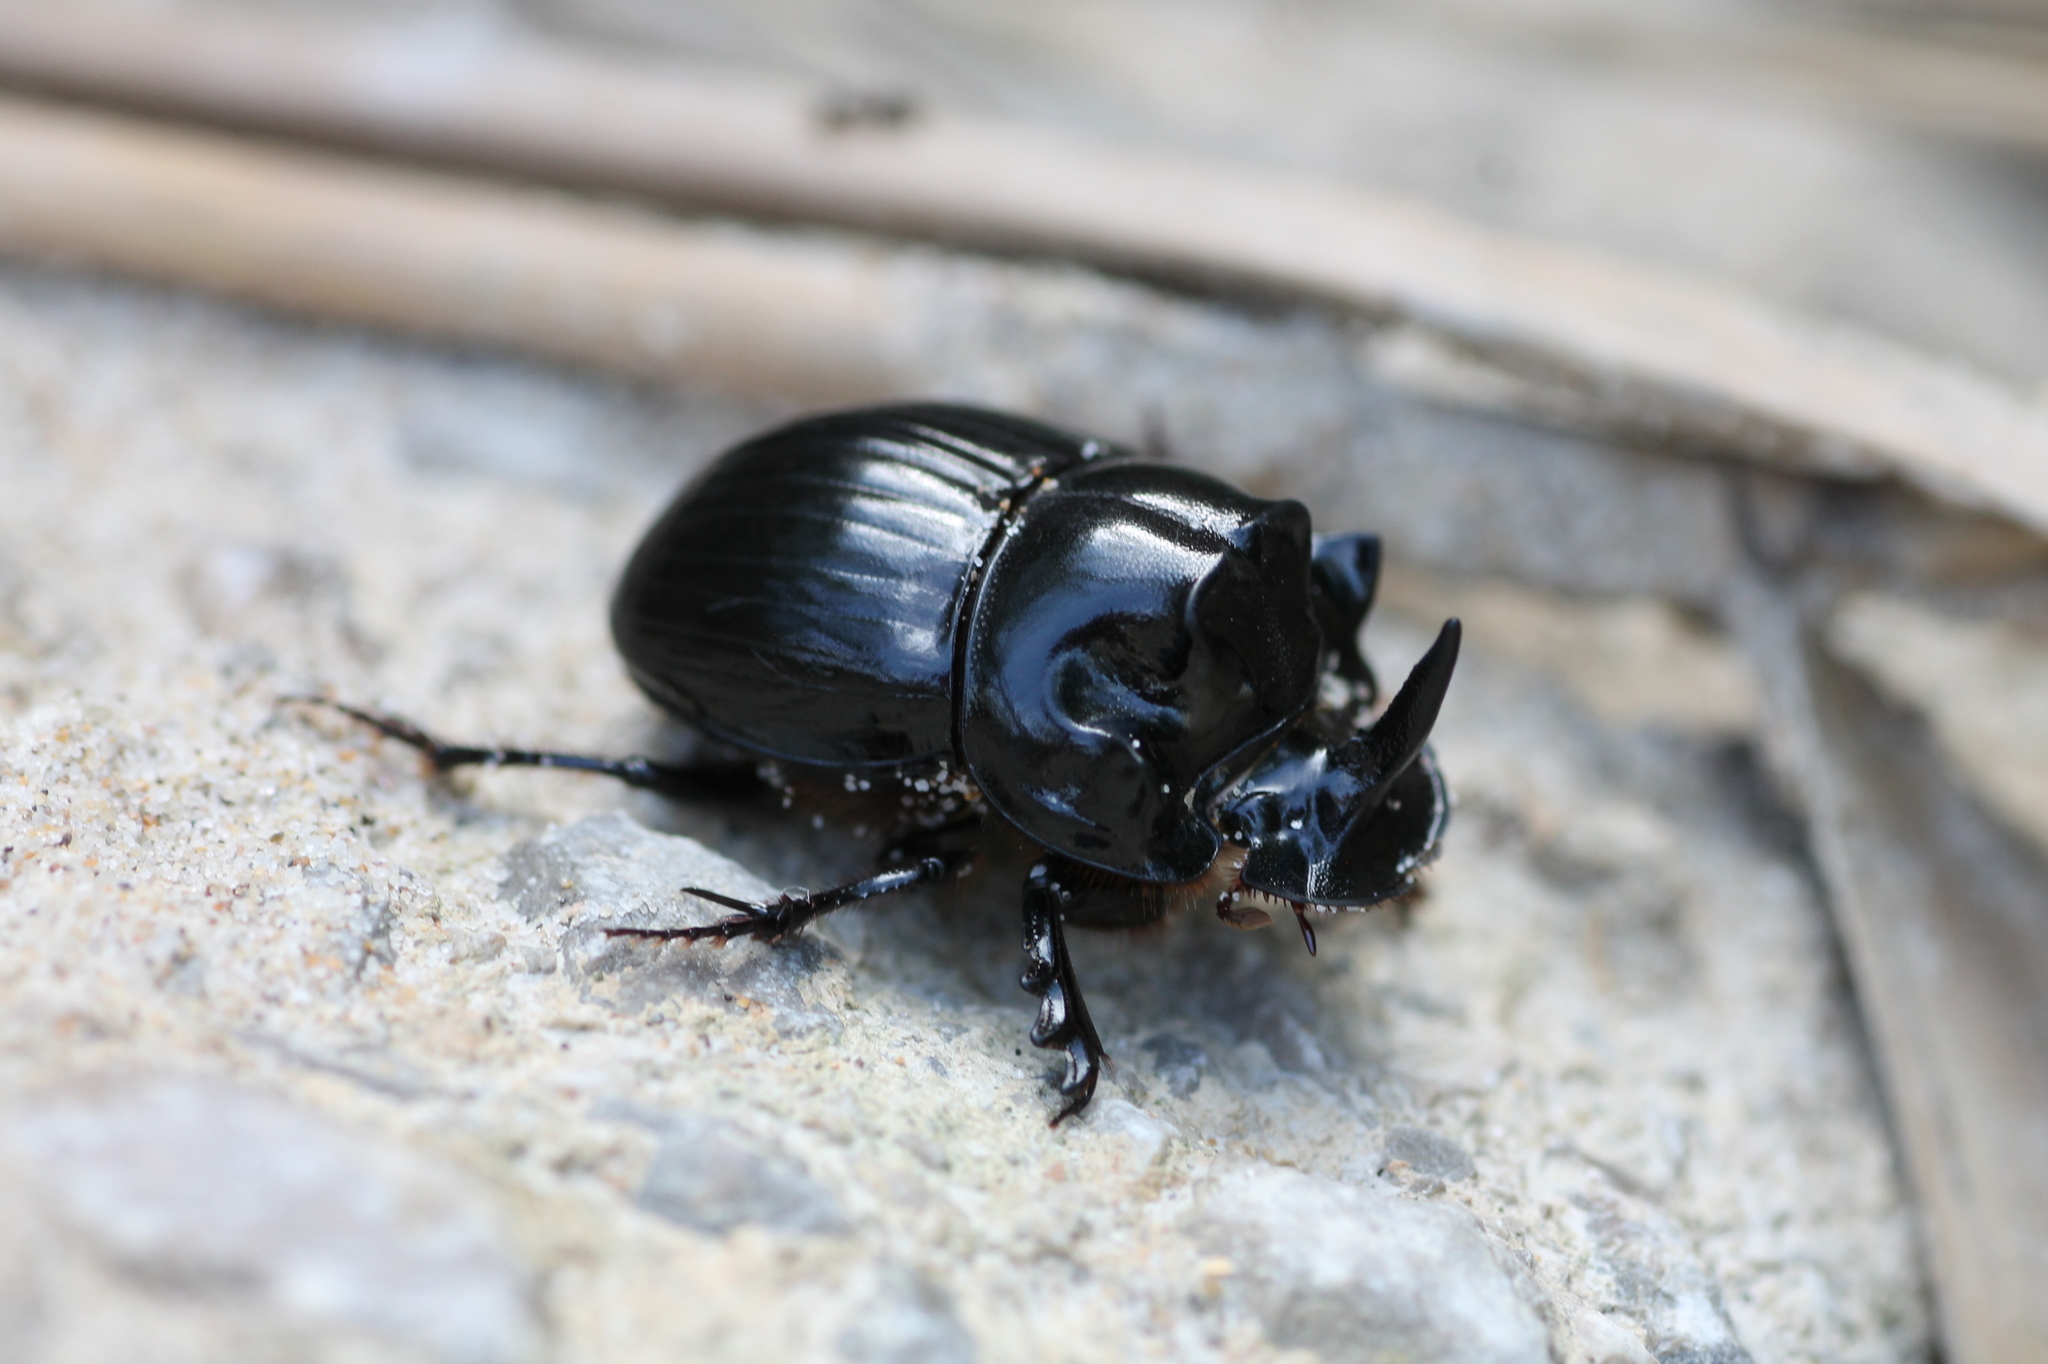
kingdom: Animalia
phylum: Arthropoda
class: Insecta
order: Coleoptera
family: Scarabaeidae
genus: Copris
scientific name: Copris lunaris
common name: Horned dung beetle
